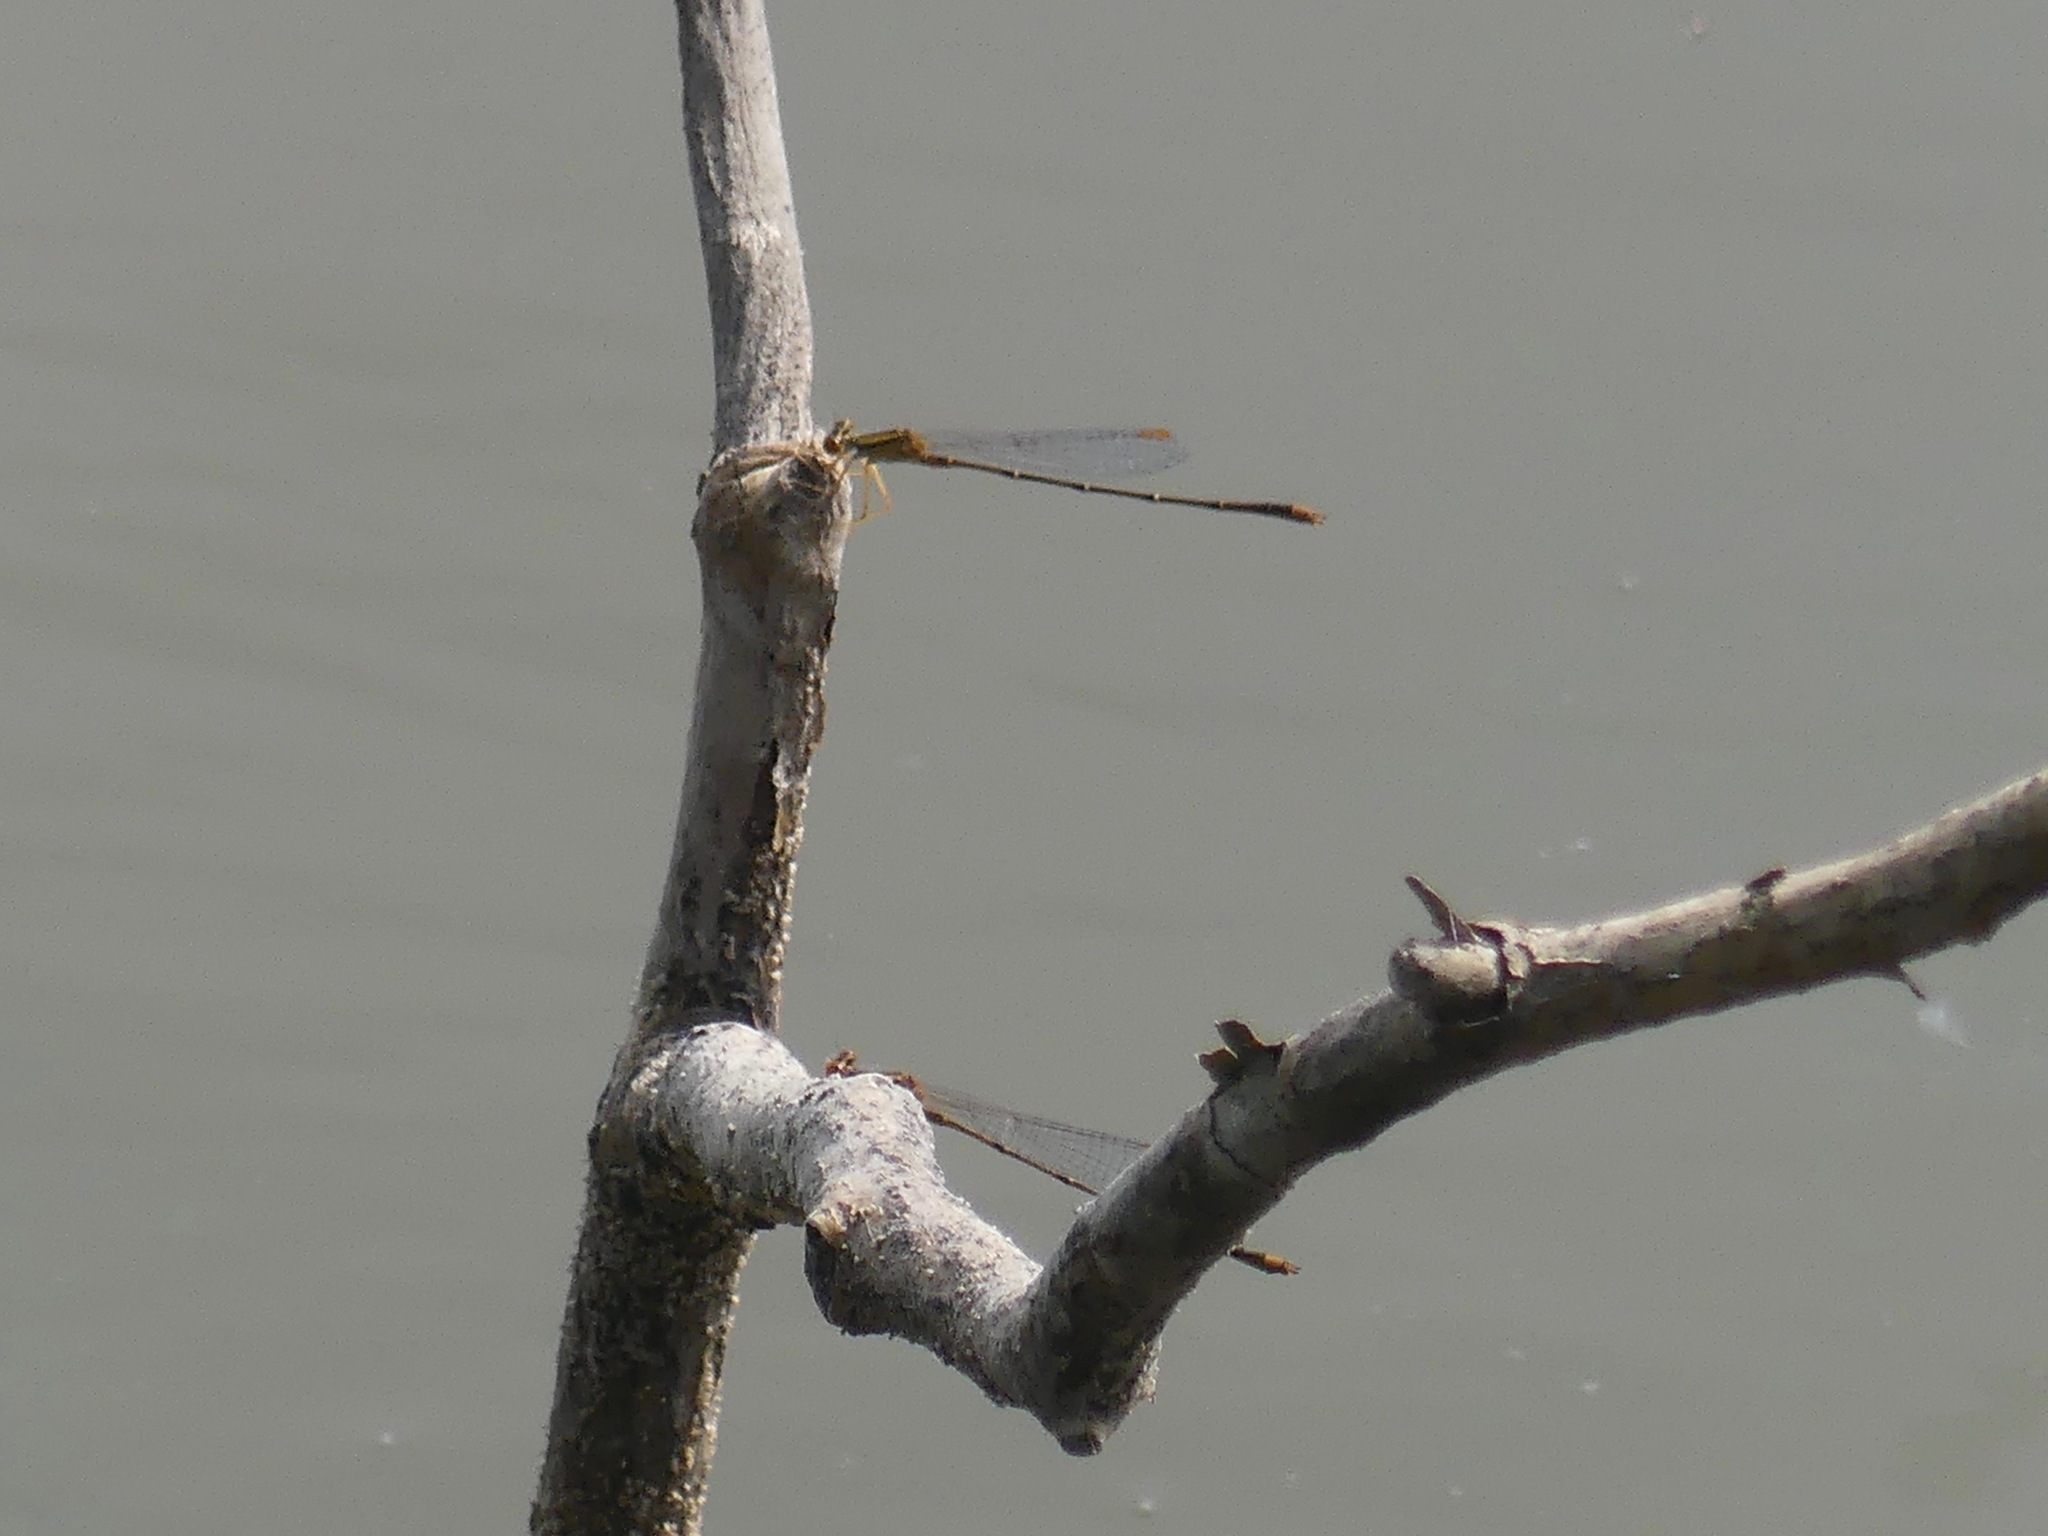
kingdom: Animalia
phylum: Arthropoda
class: Insecta
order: Odonata
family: Coenagrionidae
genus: Enallagma
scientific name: Enallagma signatum
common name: Orange bluet
